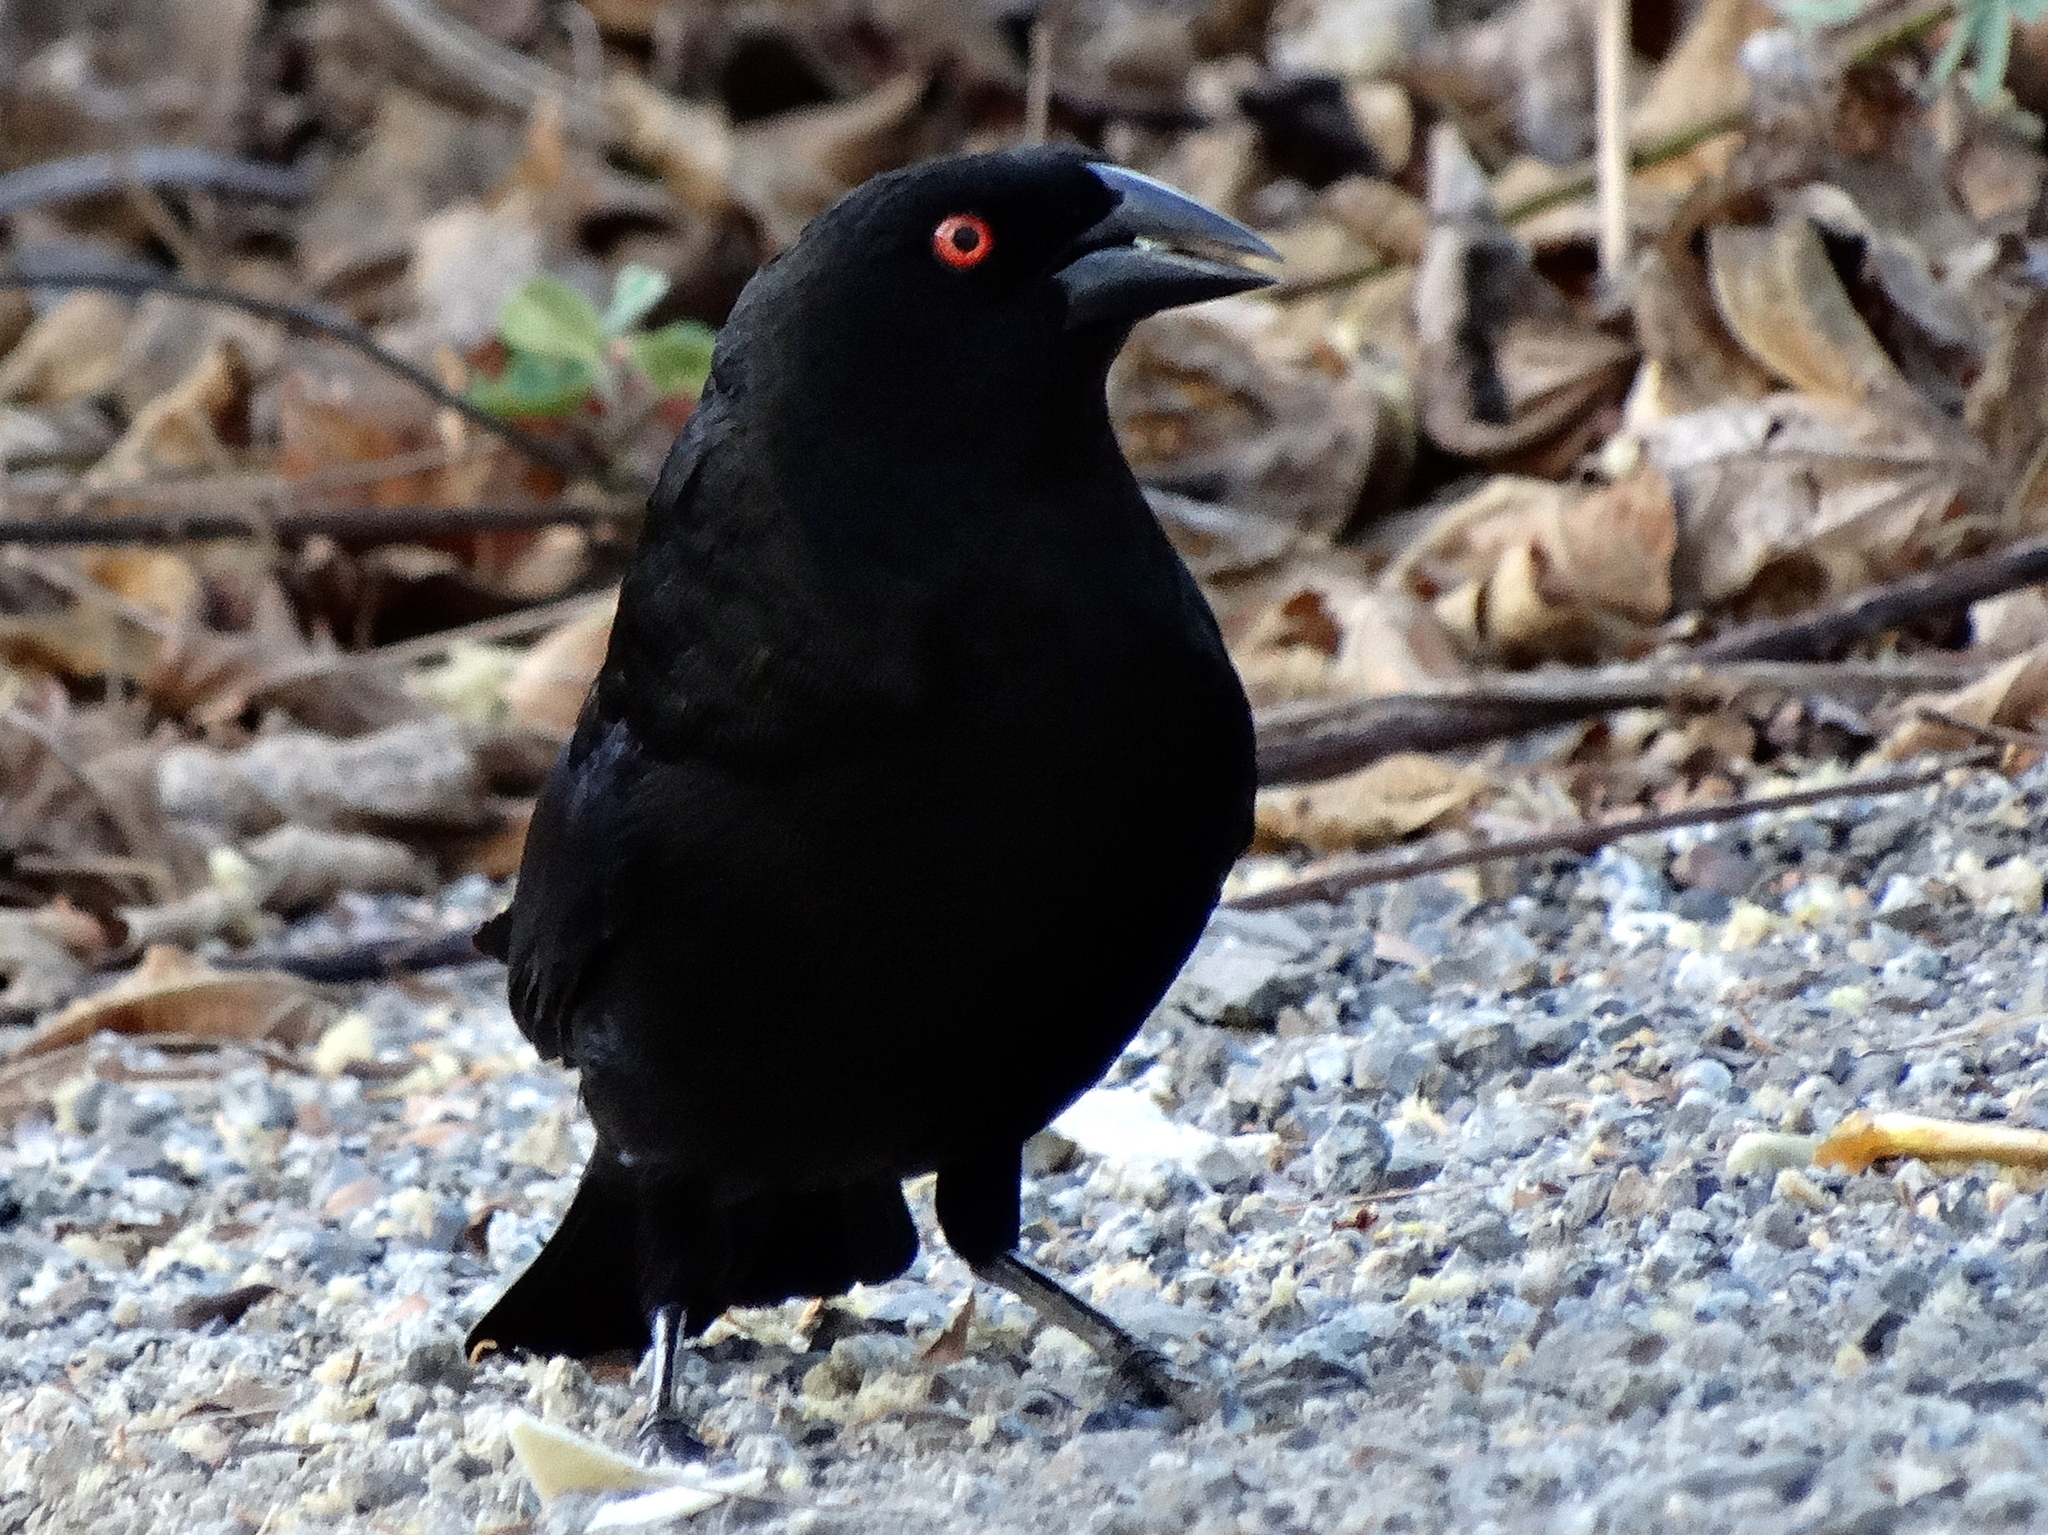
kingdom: Animalia
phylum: Chordata
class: Aves
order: Passeriformes
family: Icteridae
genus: Molothrus
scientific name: Molothrus aeneus
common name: Bronzed cowbird
